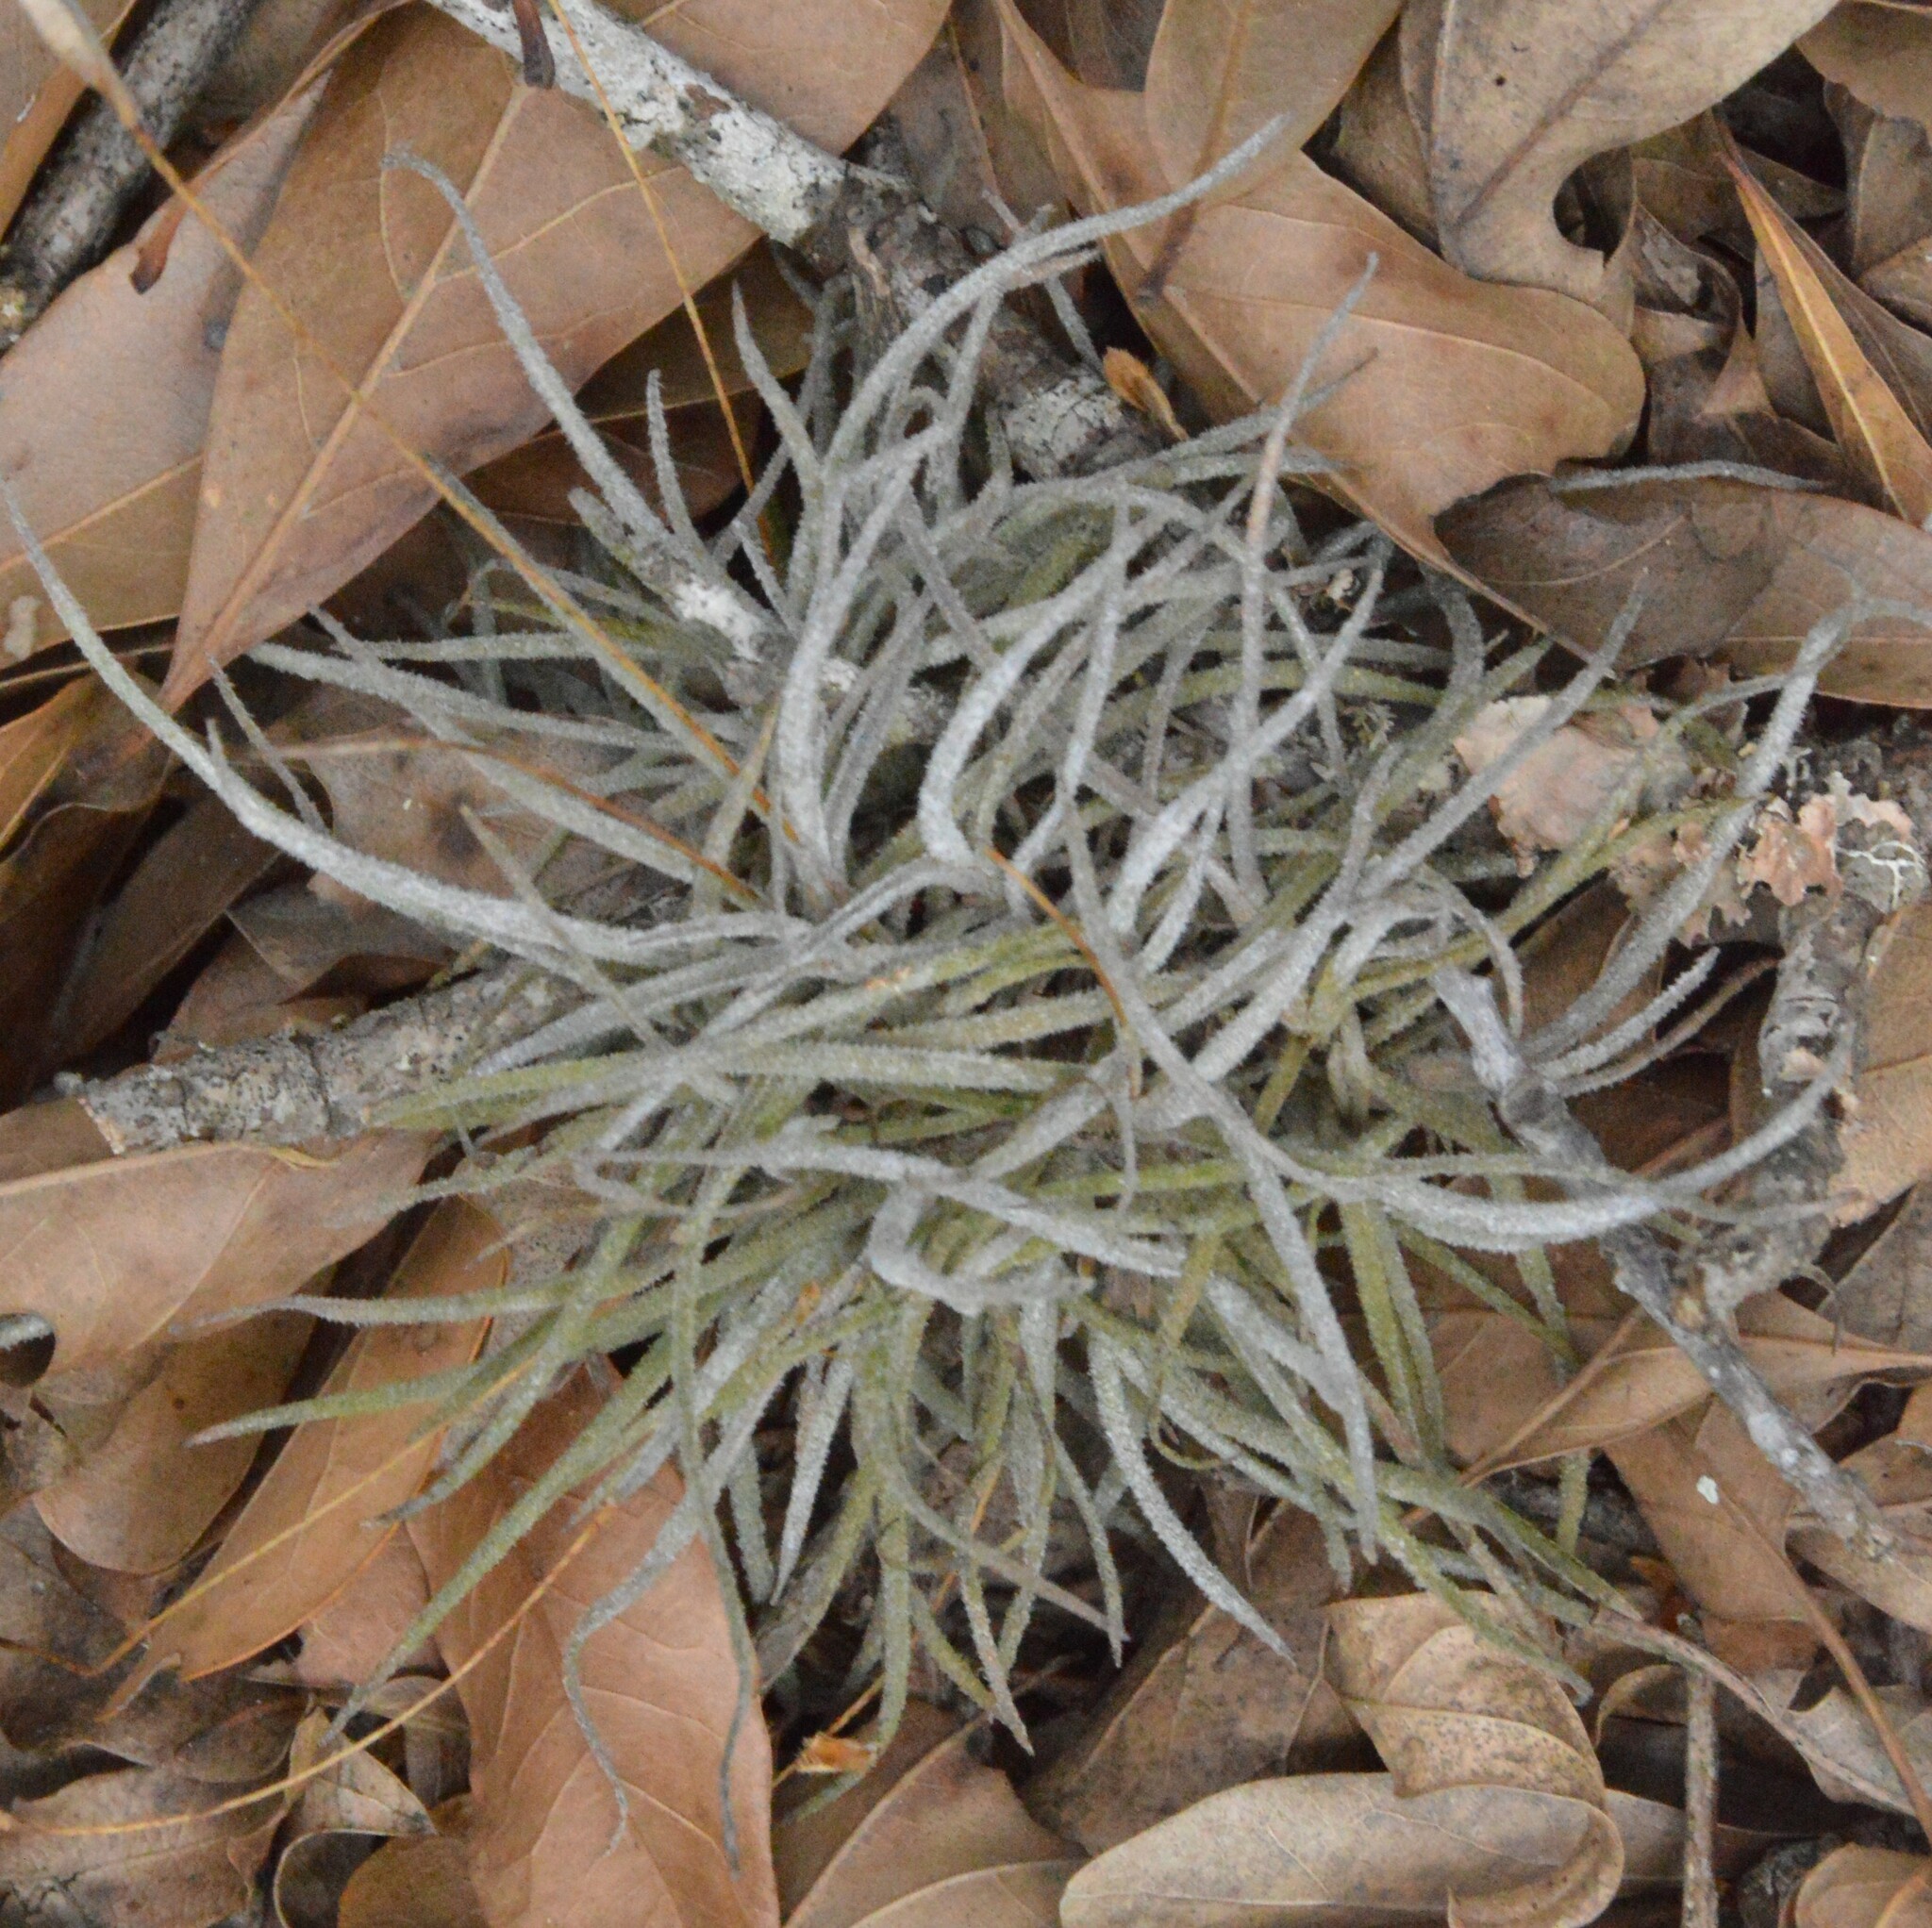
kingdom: Plantae
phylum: Tracheophyta
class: Liliopsida
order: Poales
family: Bromeliaceae
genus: Tillandsia
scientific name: Tillandsia recurvata
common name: Small ballmoss
